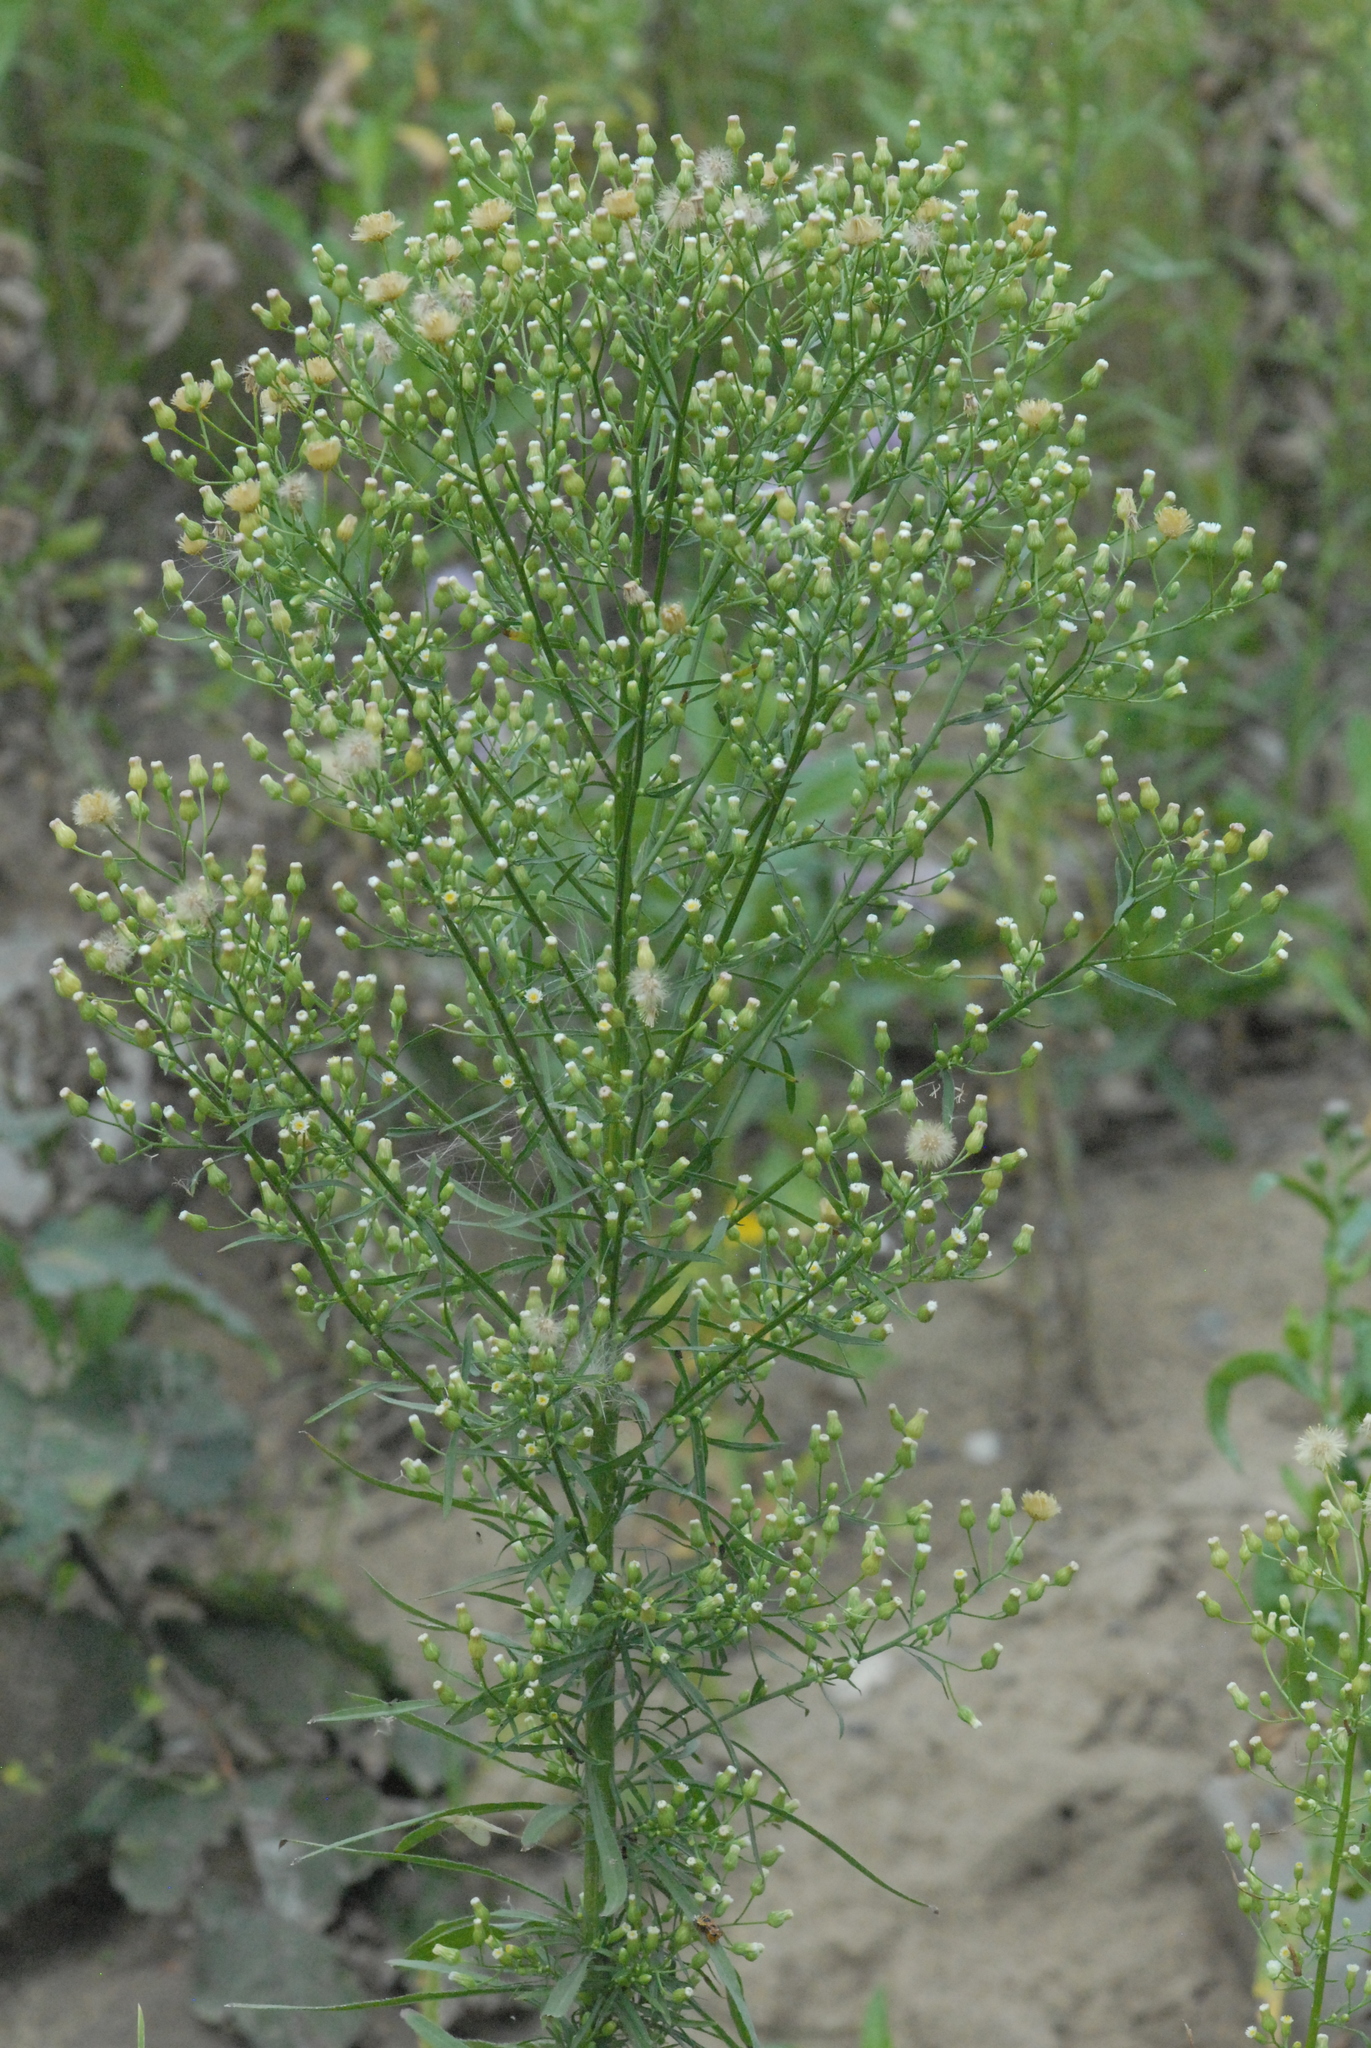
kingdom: Plantae
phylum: Tracheophyta
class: Magnoliopsida
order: Asterales
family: Asteraceae
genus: Erigeron
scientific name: Erigeron canadensis
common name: Canadian fleabane
